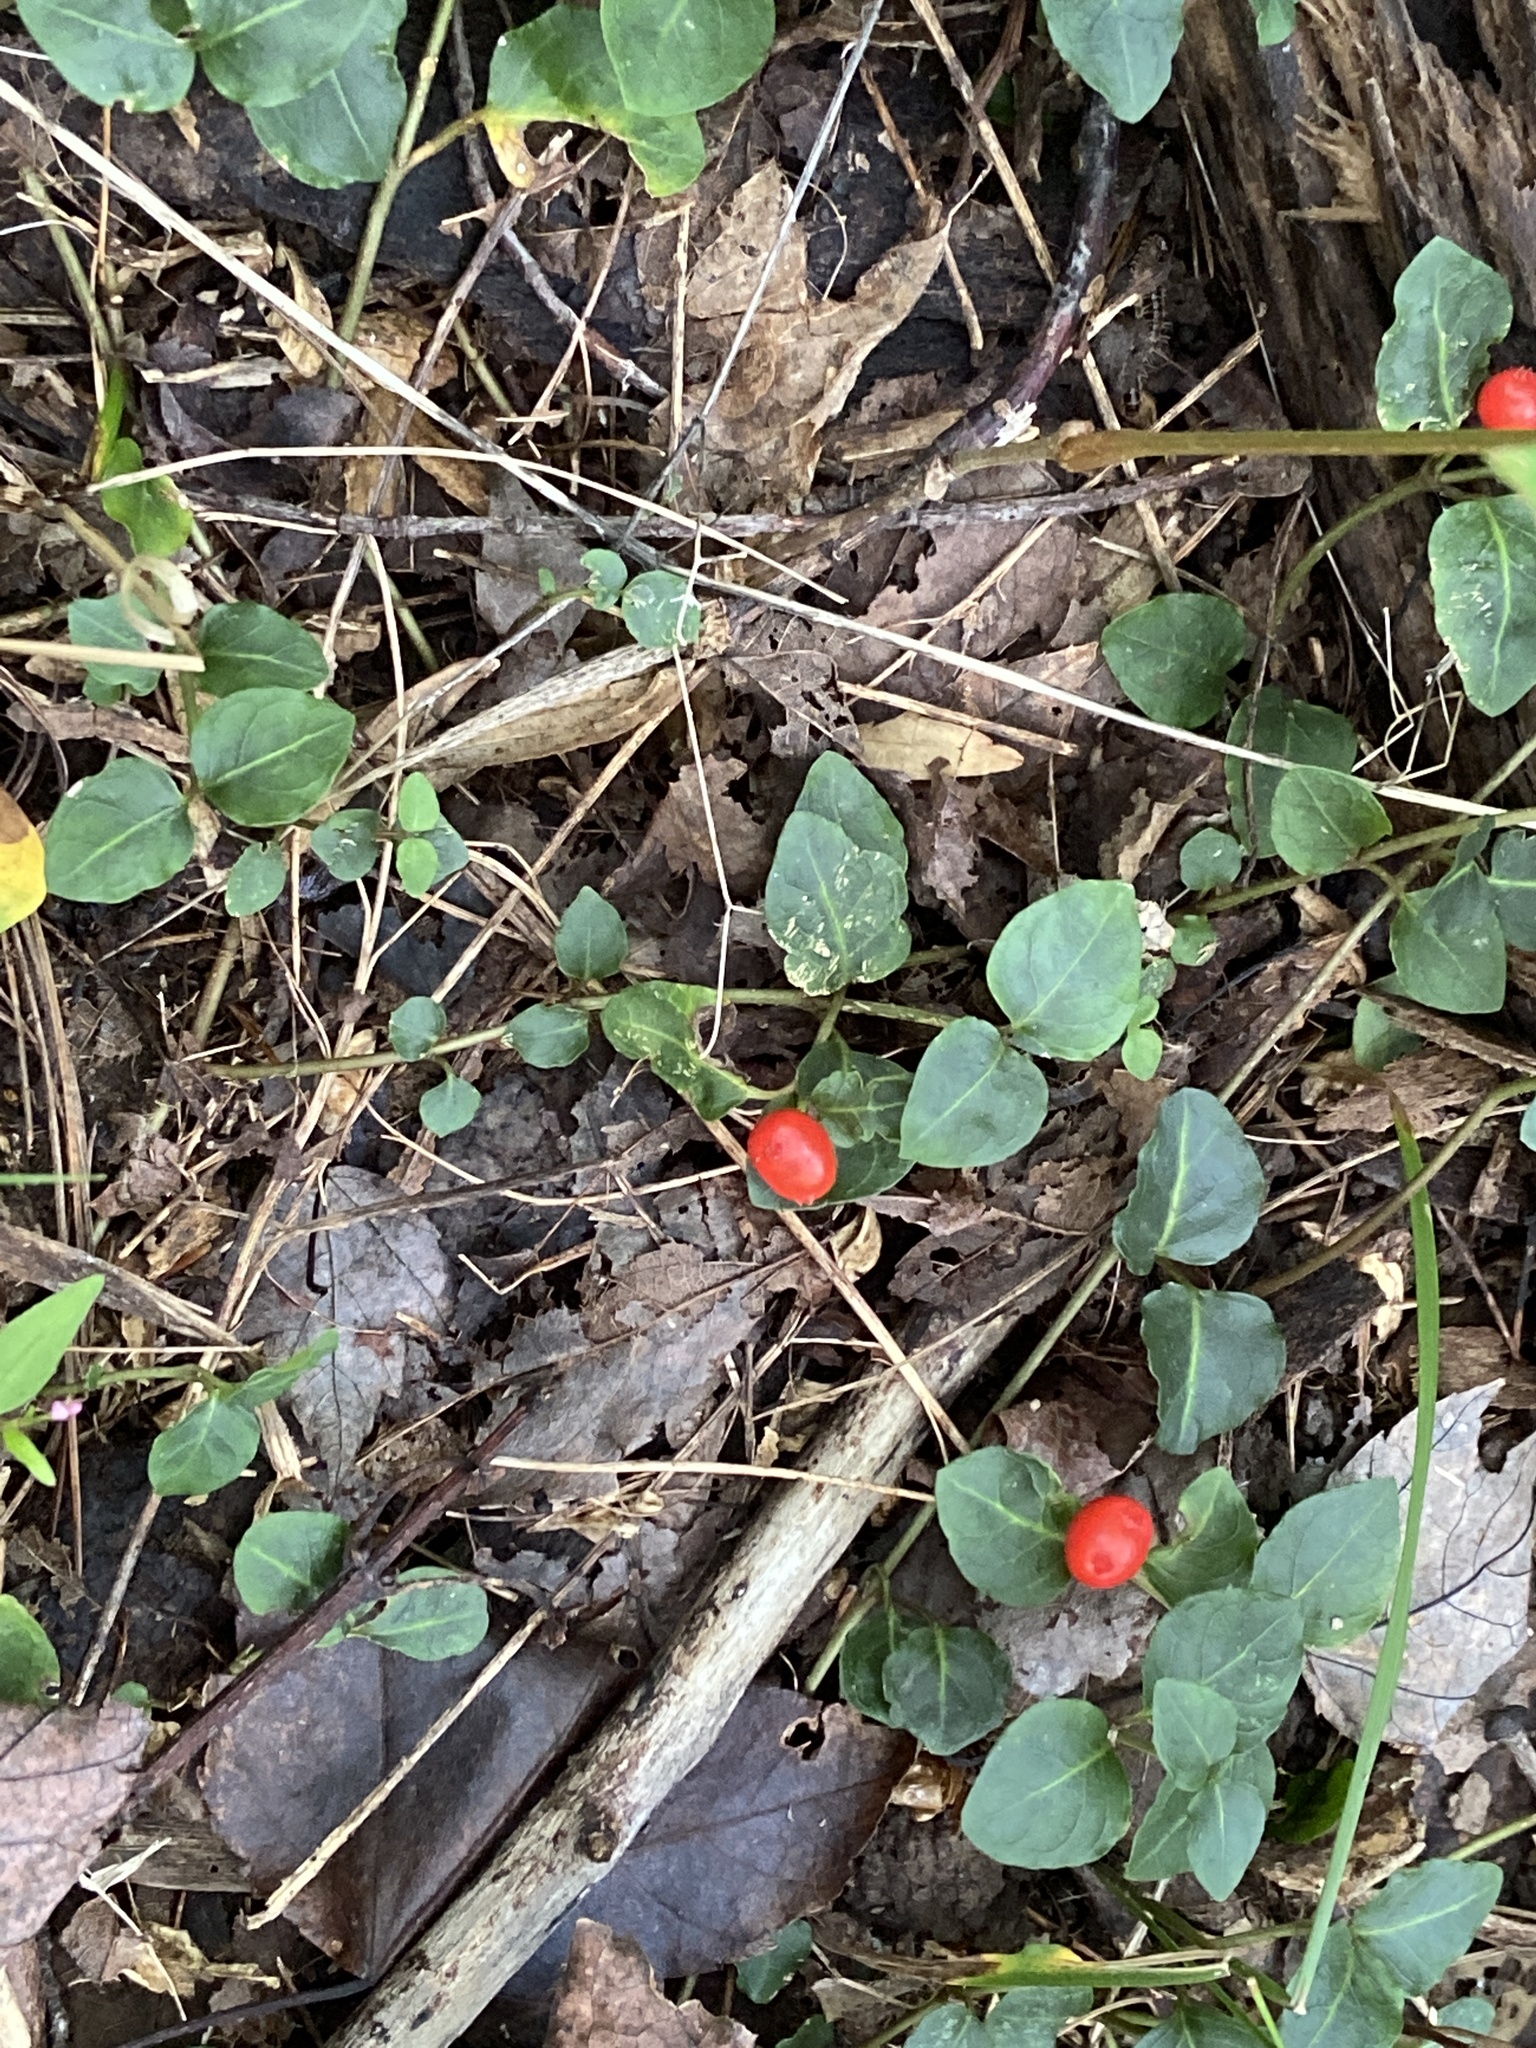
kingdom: Plantae
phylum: Tracheophyta
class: Magnoliopsida
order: Gentianales
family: Rubiaceae
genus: Mitchella
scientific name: Mitchella repens
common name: Partridge-berry
